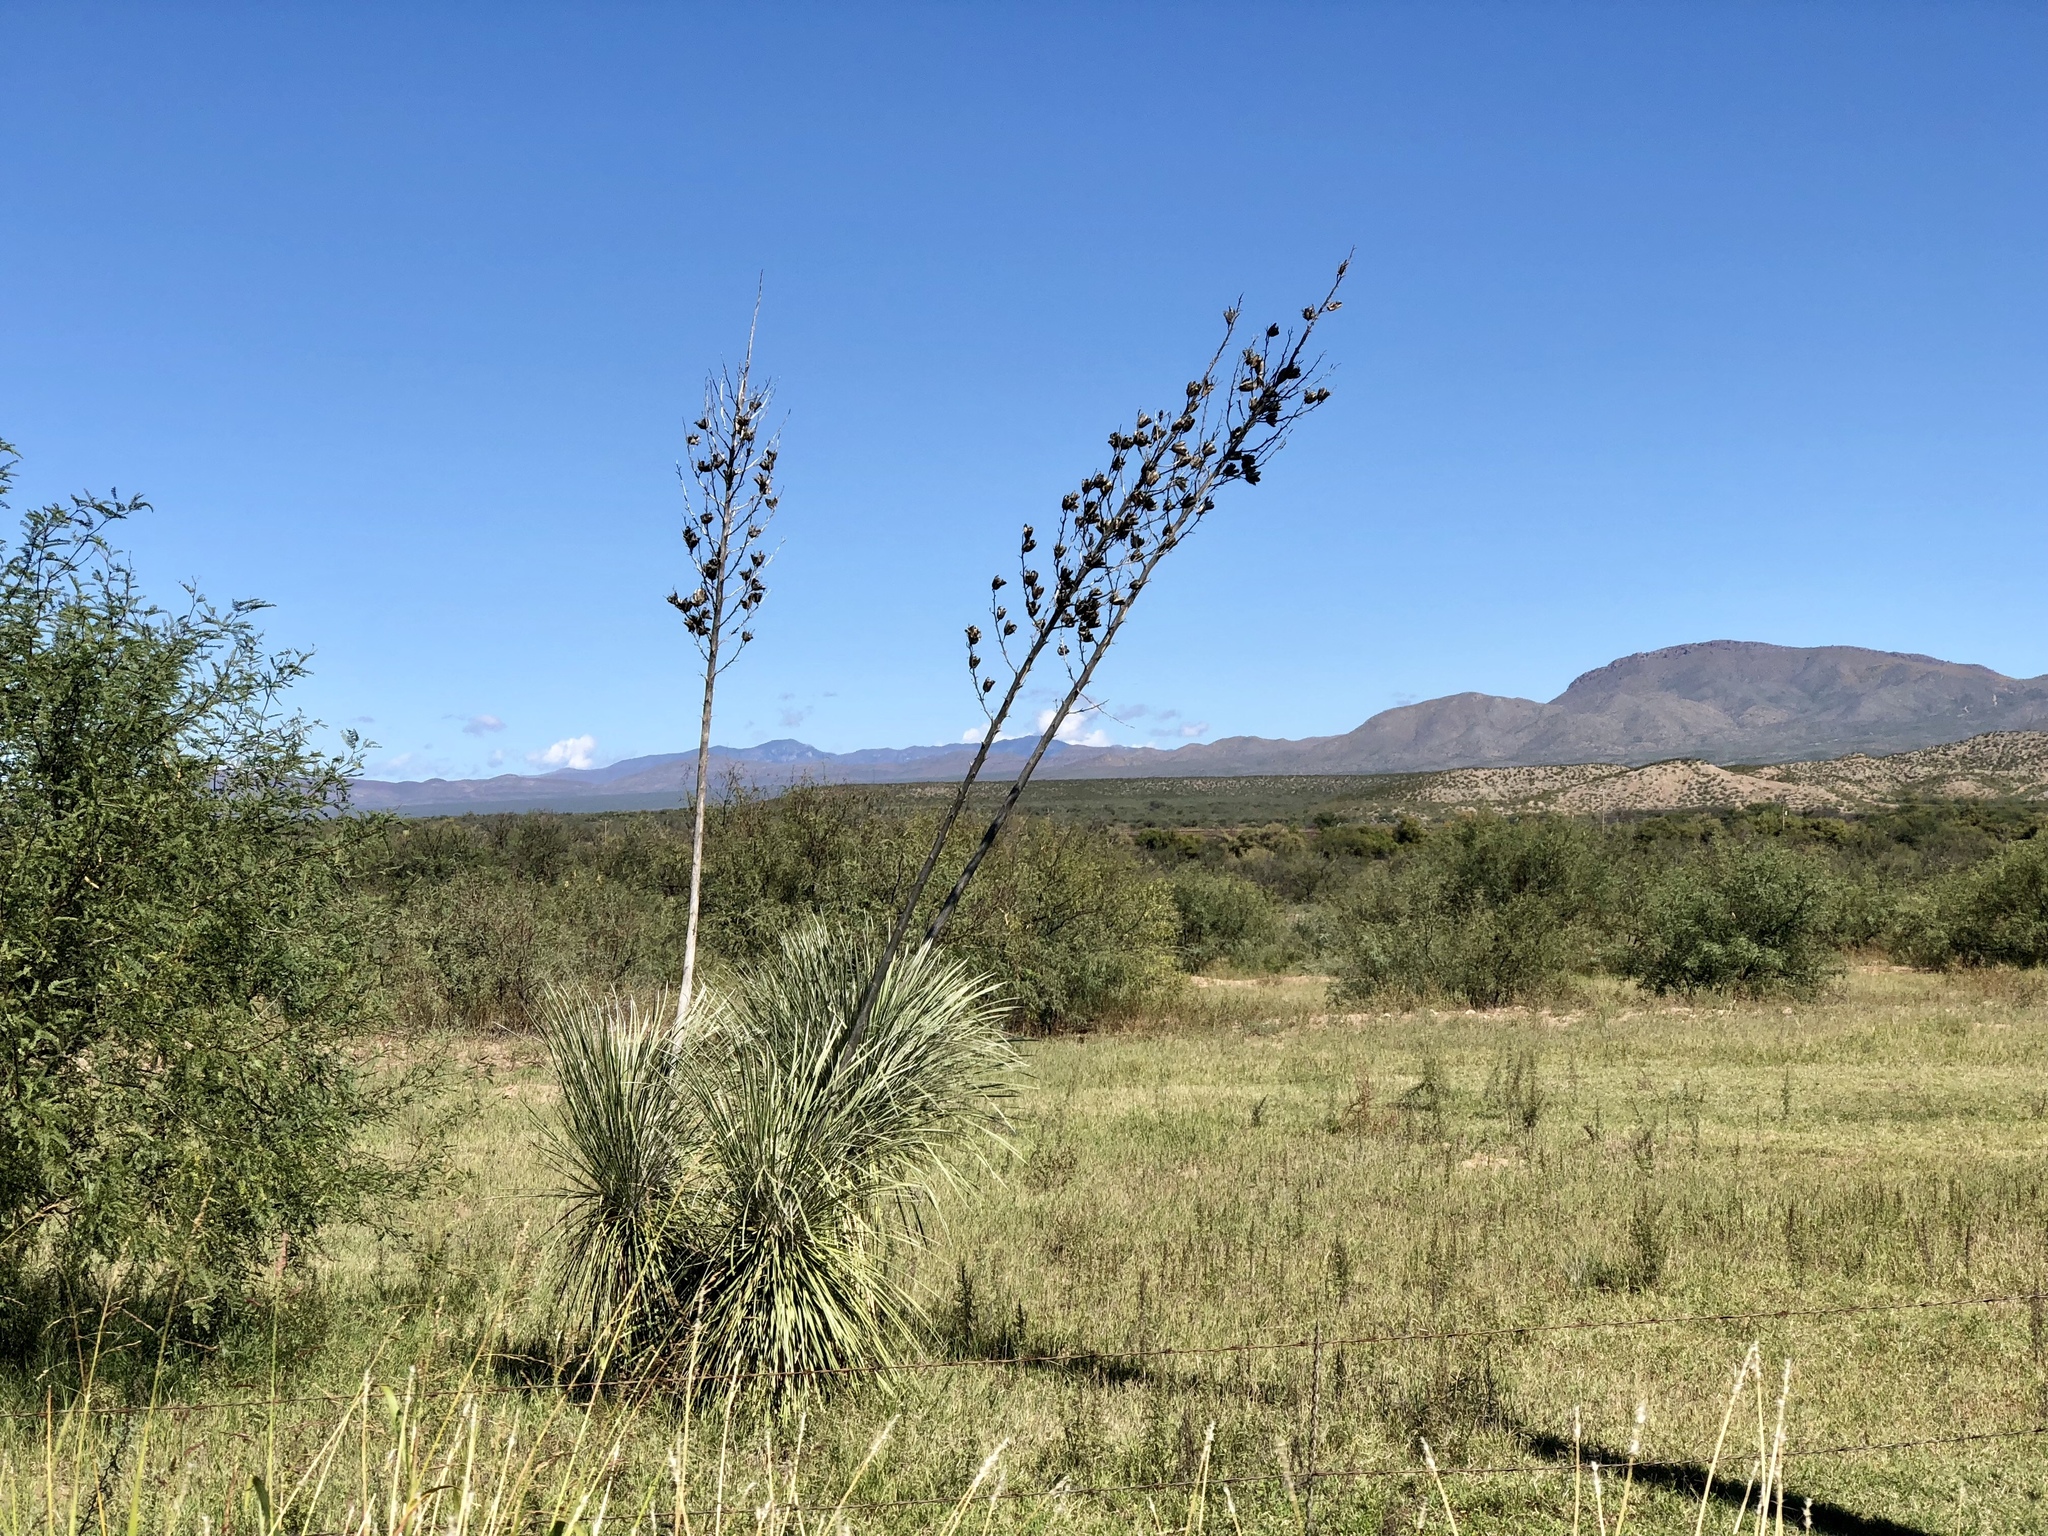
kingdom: Plantae
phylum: Tracheophyta
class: Liliopsida
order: Asparagales
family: Asparagaceae
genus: Yucca
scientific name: Yucca elata
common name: Palmella
